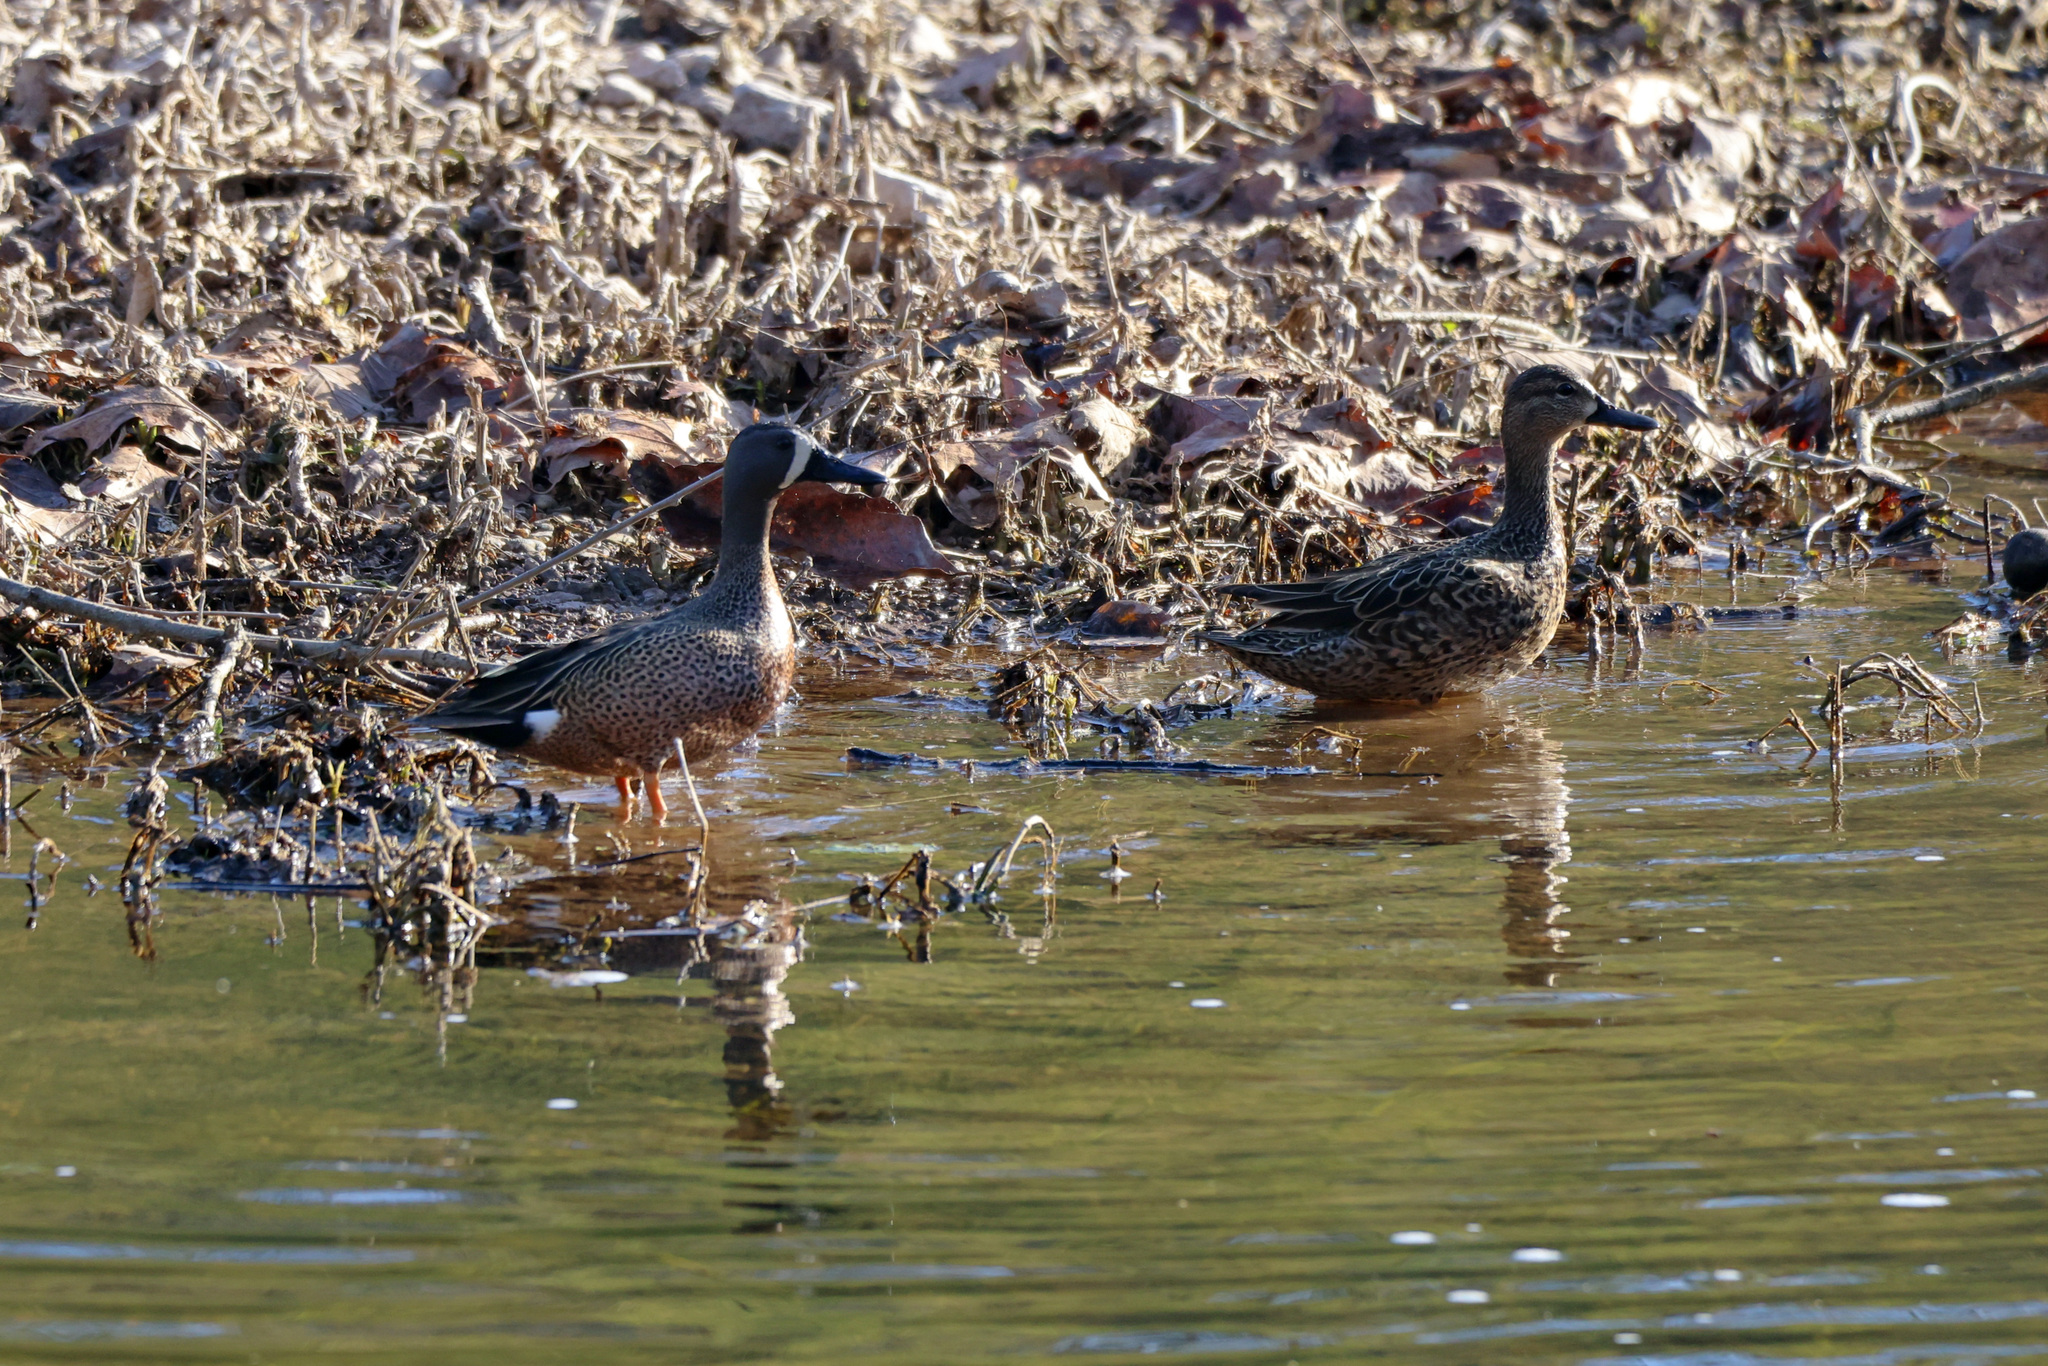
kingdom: Animalia
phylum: Chordata
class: Aves
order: Anseriformes
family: Anatidae
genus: Spatula
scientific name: Spatula discors
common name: Blue-winged teal
